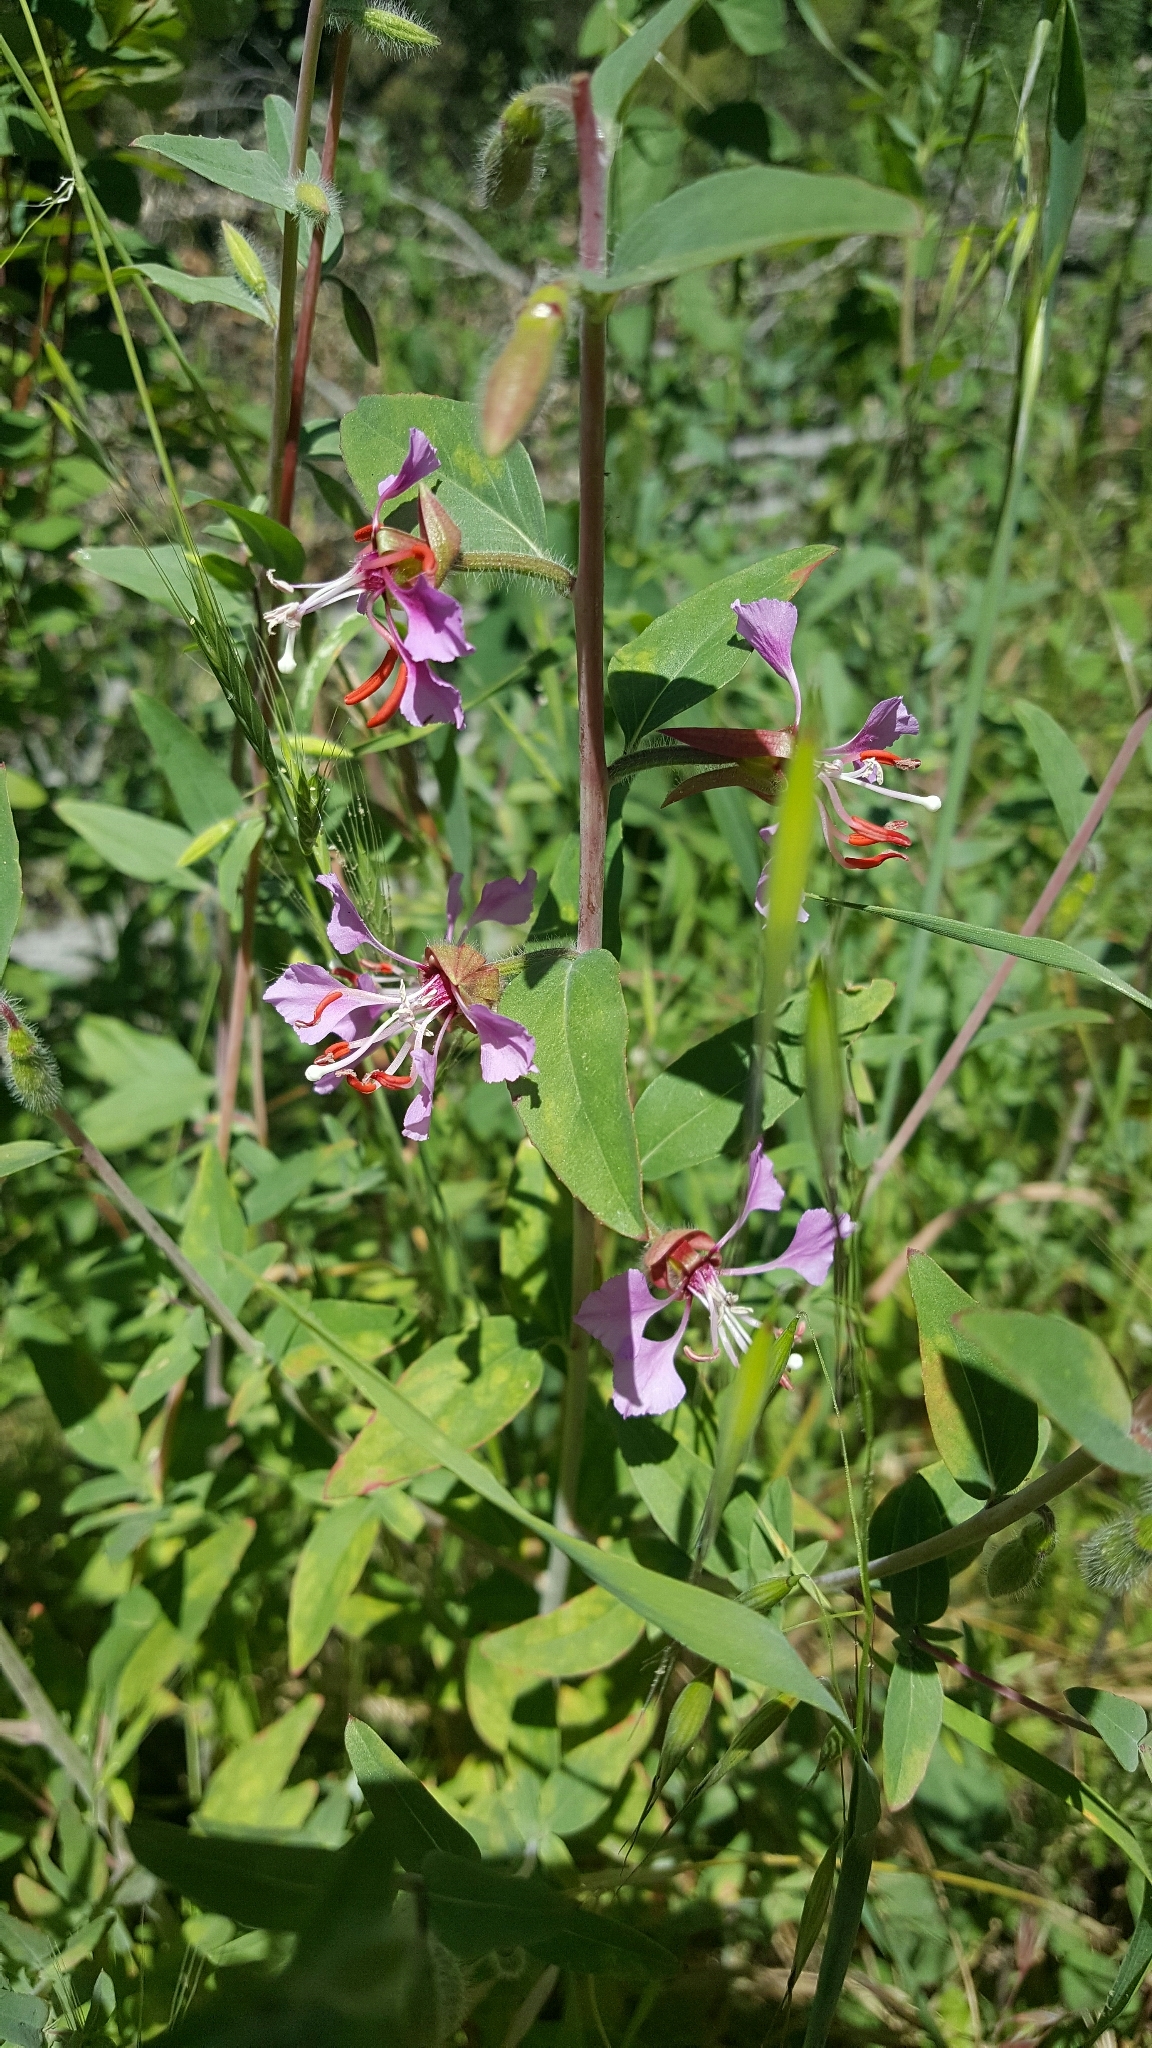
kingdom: Plantae
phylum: Tracheophyta
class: Magnoliopsida
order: Myrtales
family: Onagraceae
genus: Clarkia
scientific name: Clarkia unguiculata
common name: Clarkia
